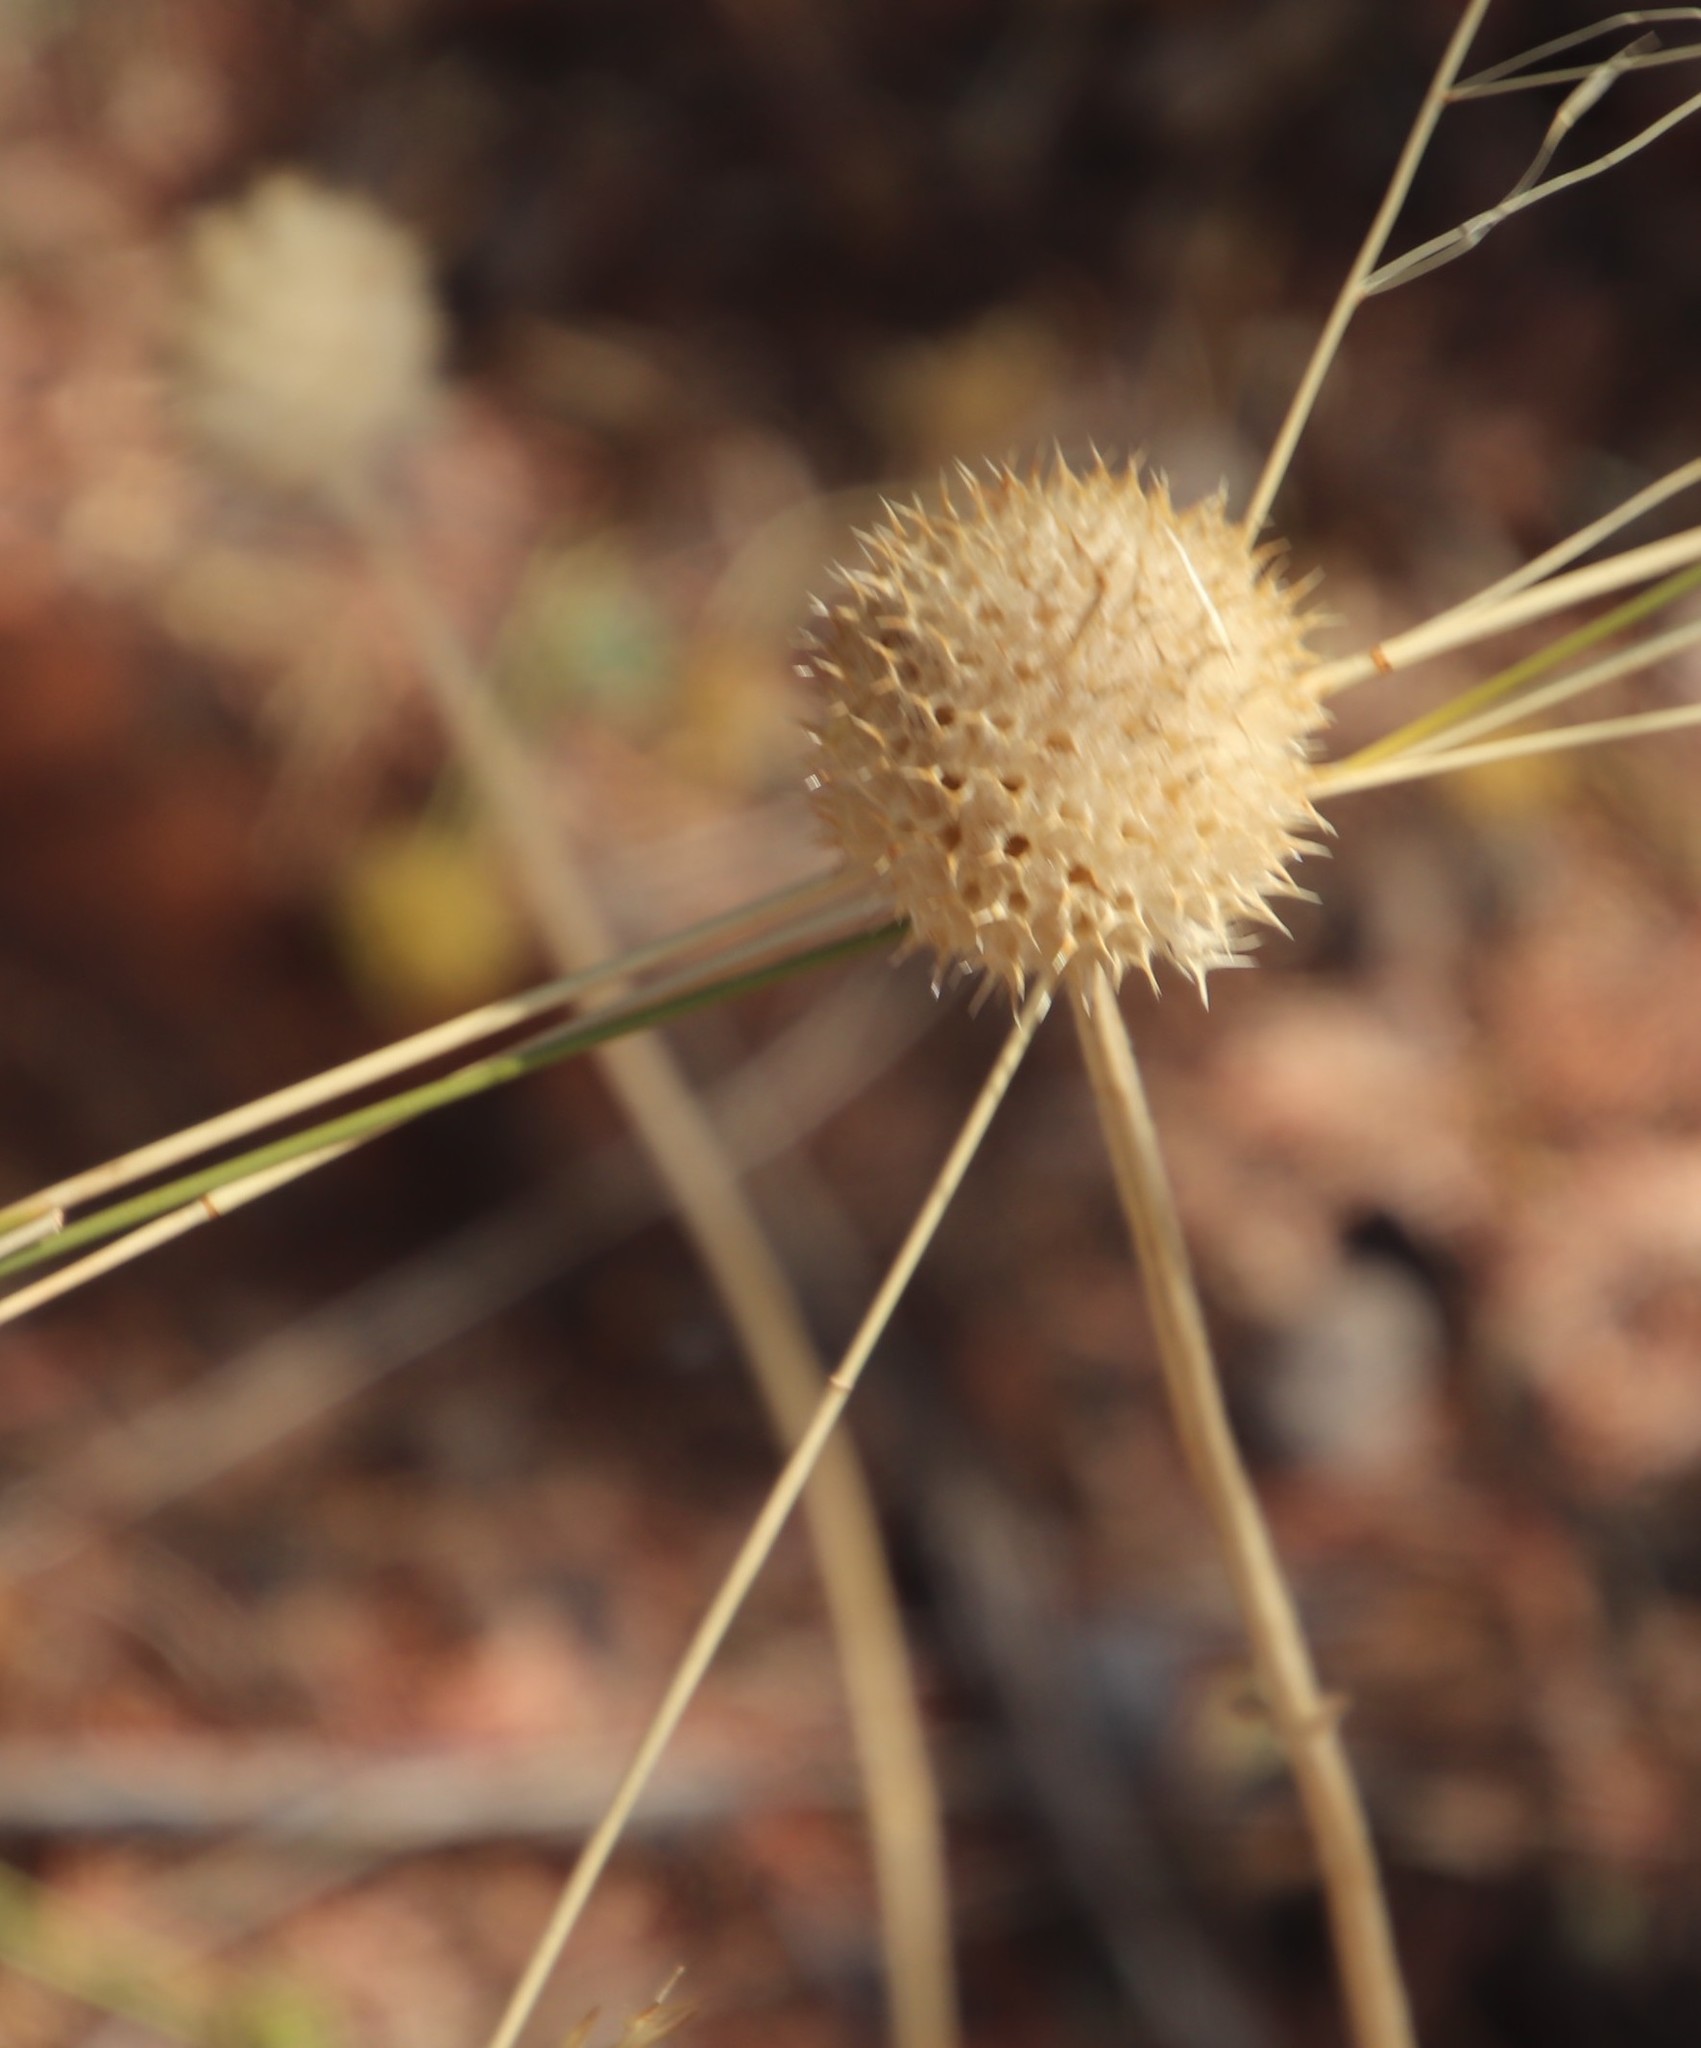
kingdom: Plantae
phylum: Tracheophyta
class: Magnoliopsida
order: Lamiales
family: Lamiaceae
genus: Acrotome
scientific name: Acrotome inflata
